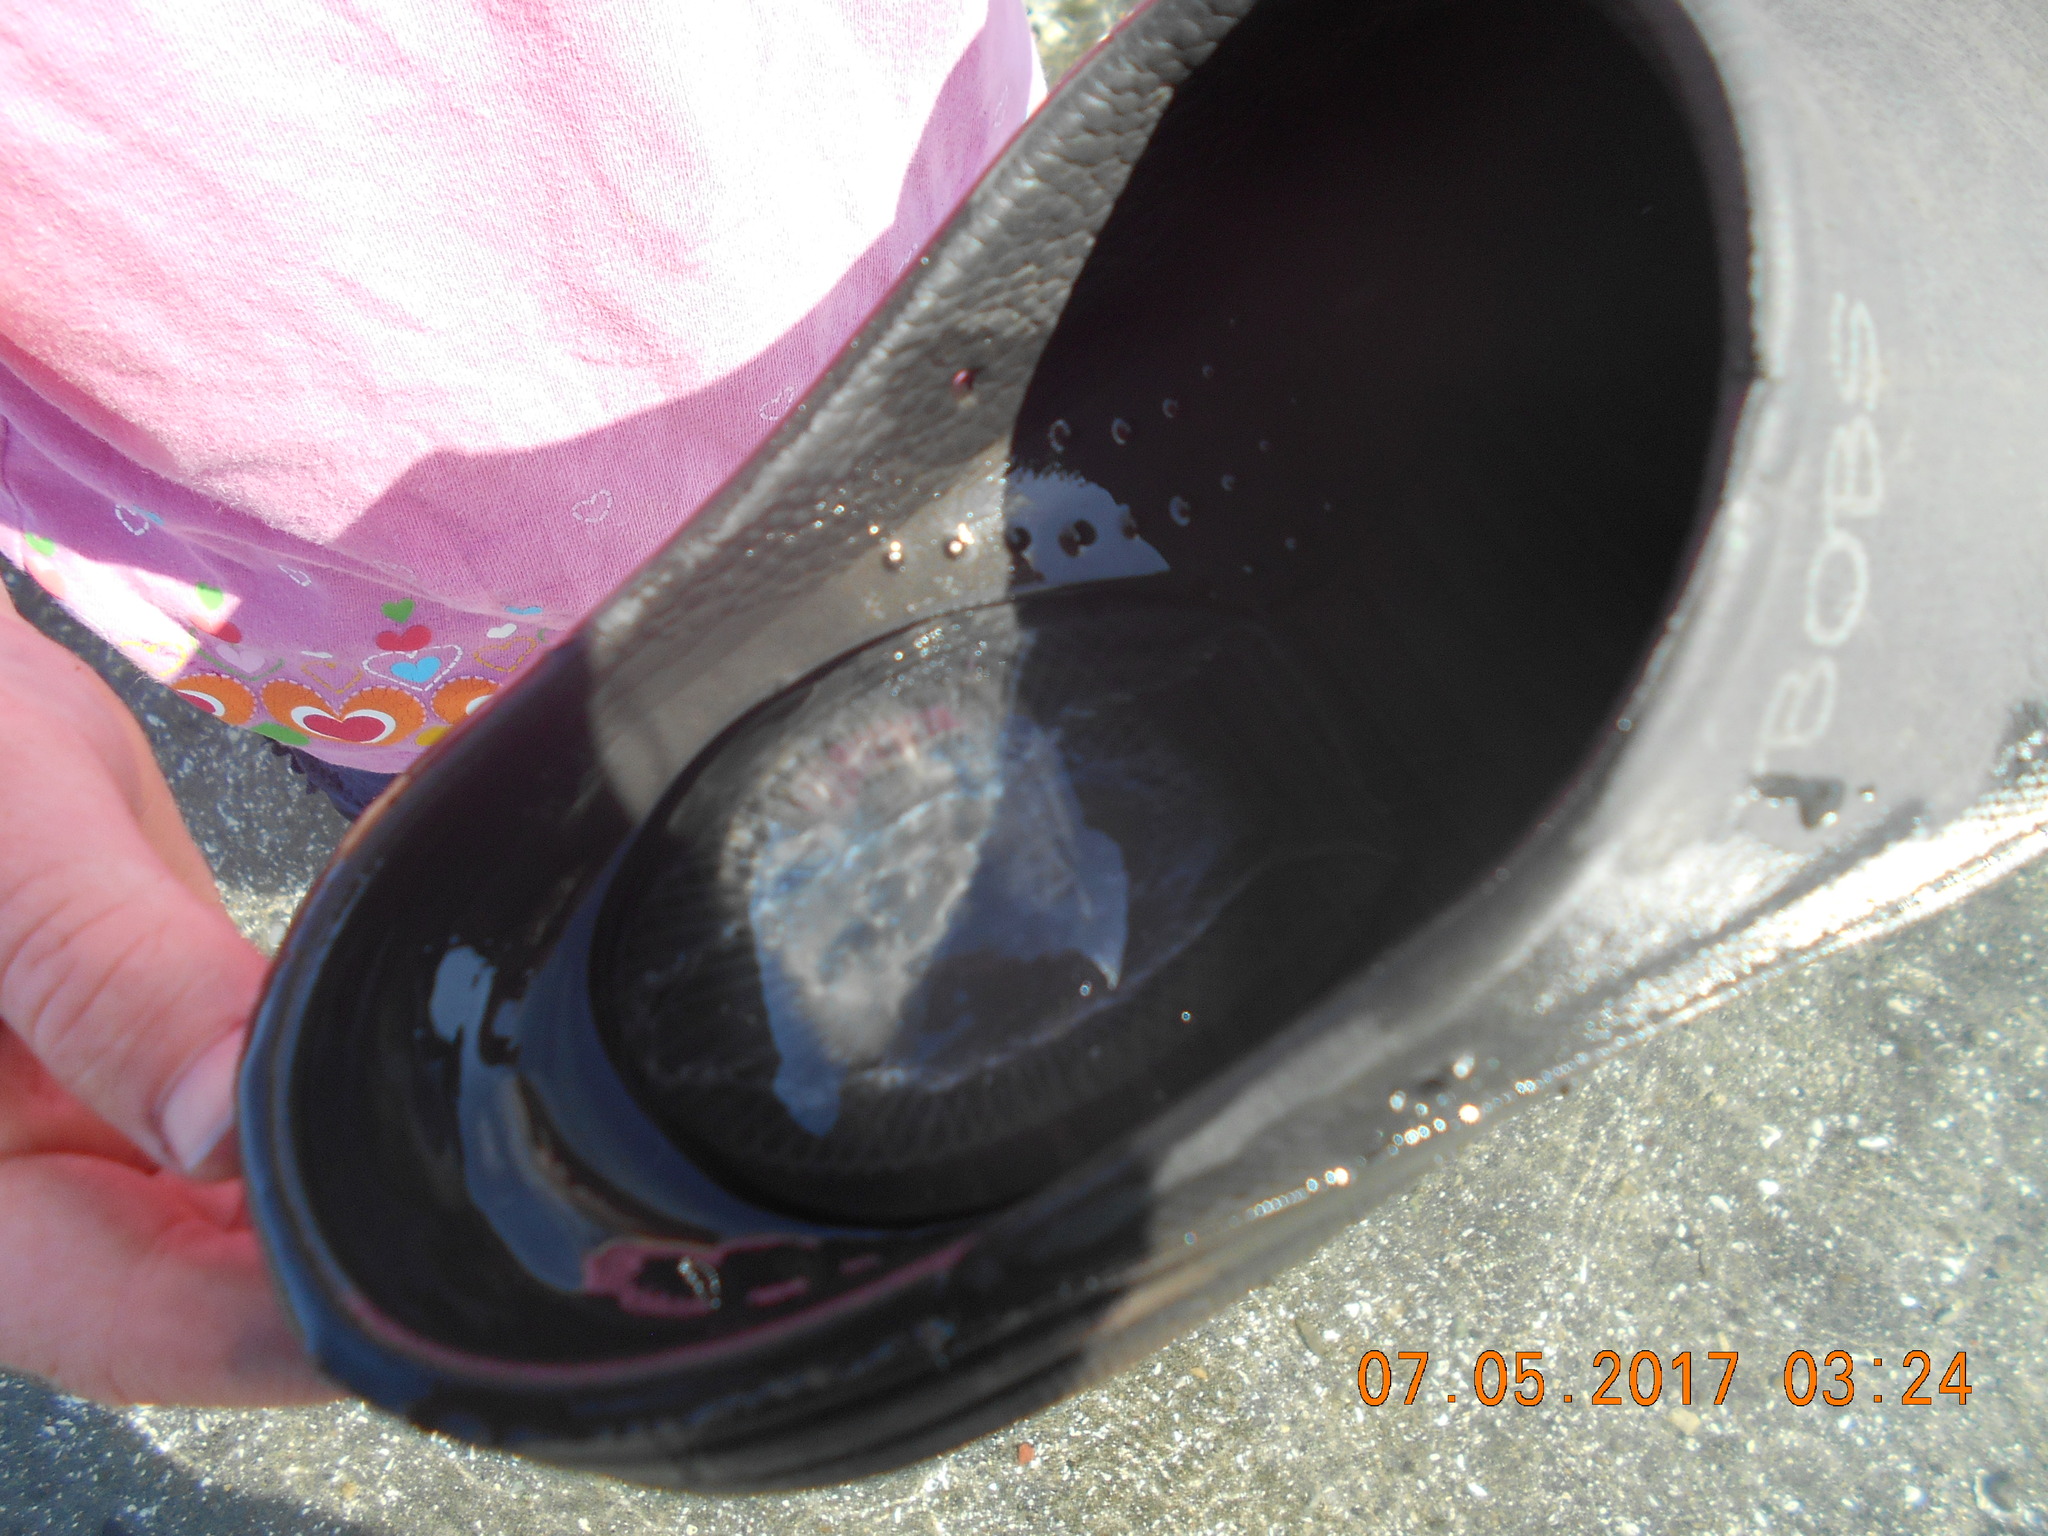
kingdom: Animalia
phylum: Cnidaria
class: Hydrozoa
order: Leptothecata
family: Aequoreidae
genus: Aequorea
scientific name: Aequorea victoria
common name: Water jellyfish
